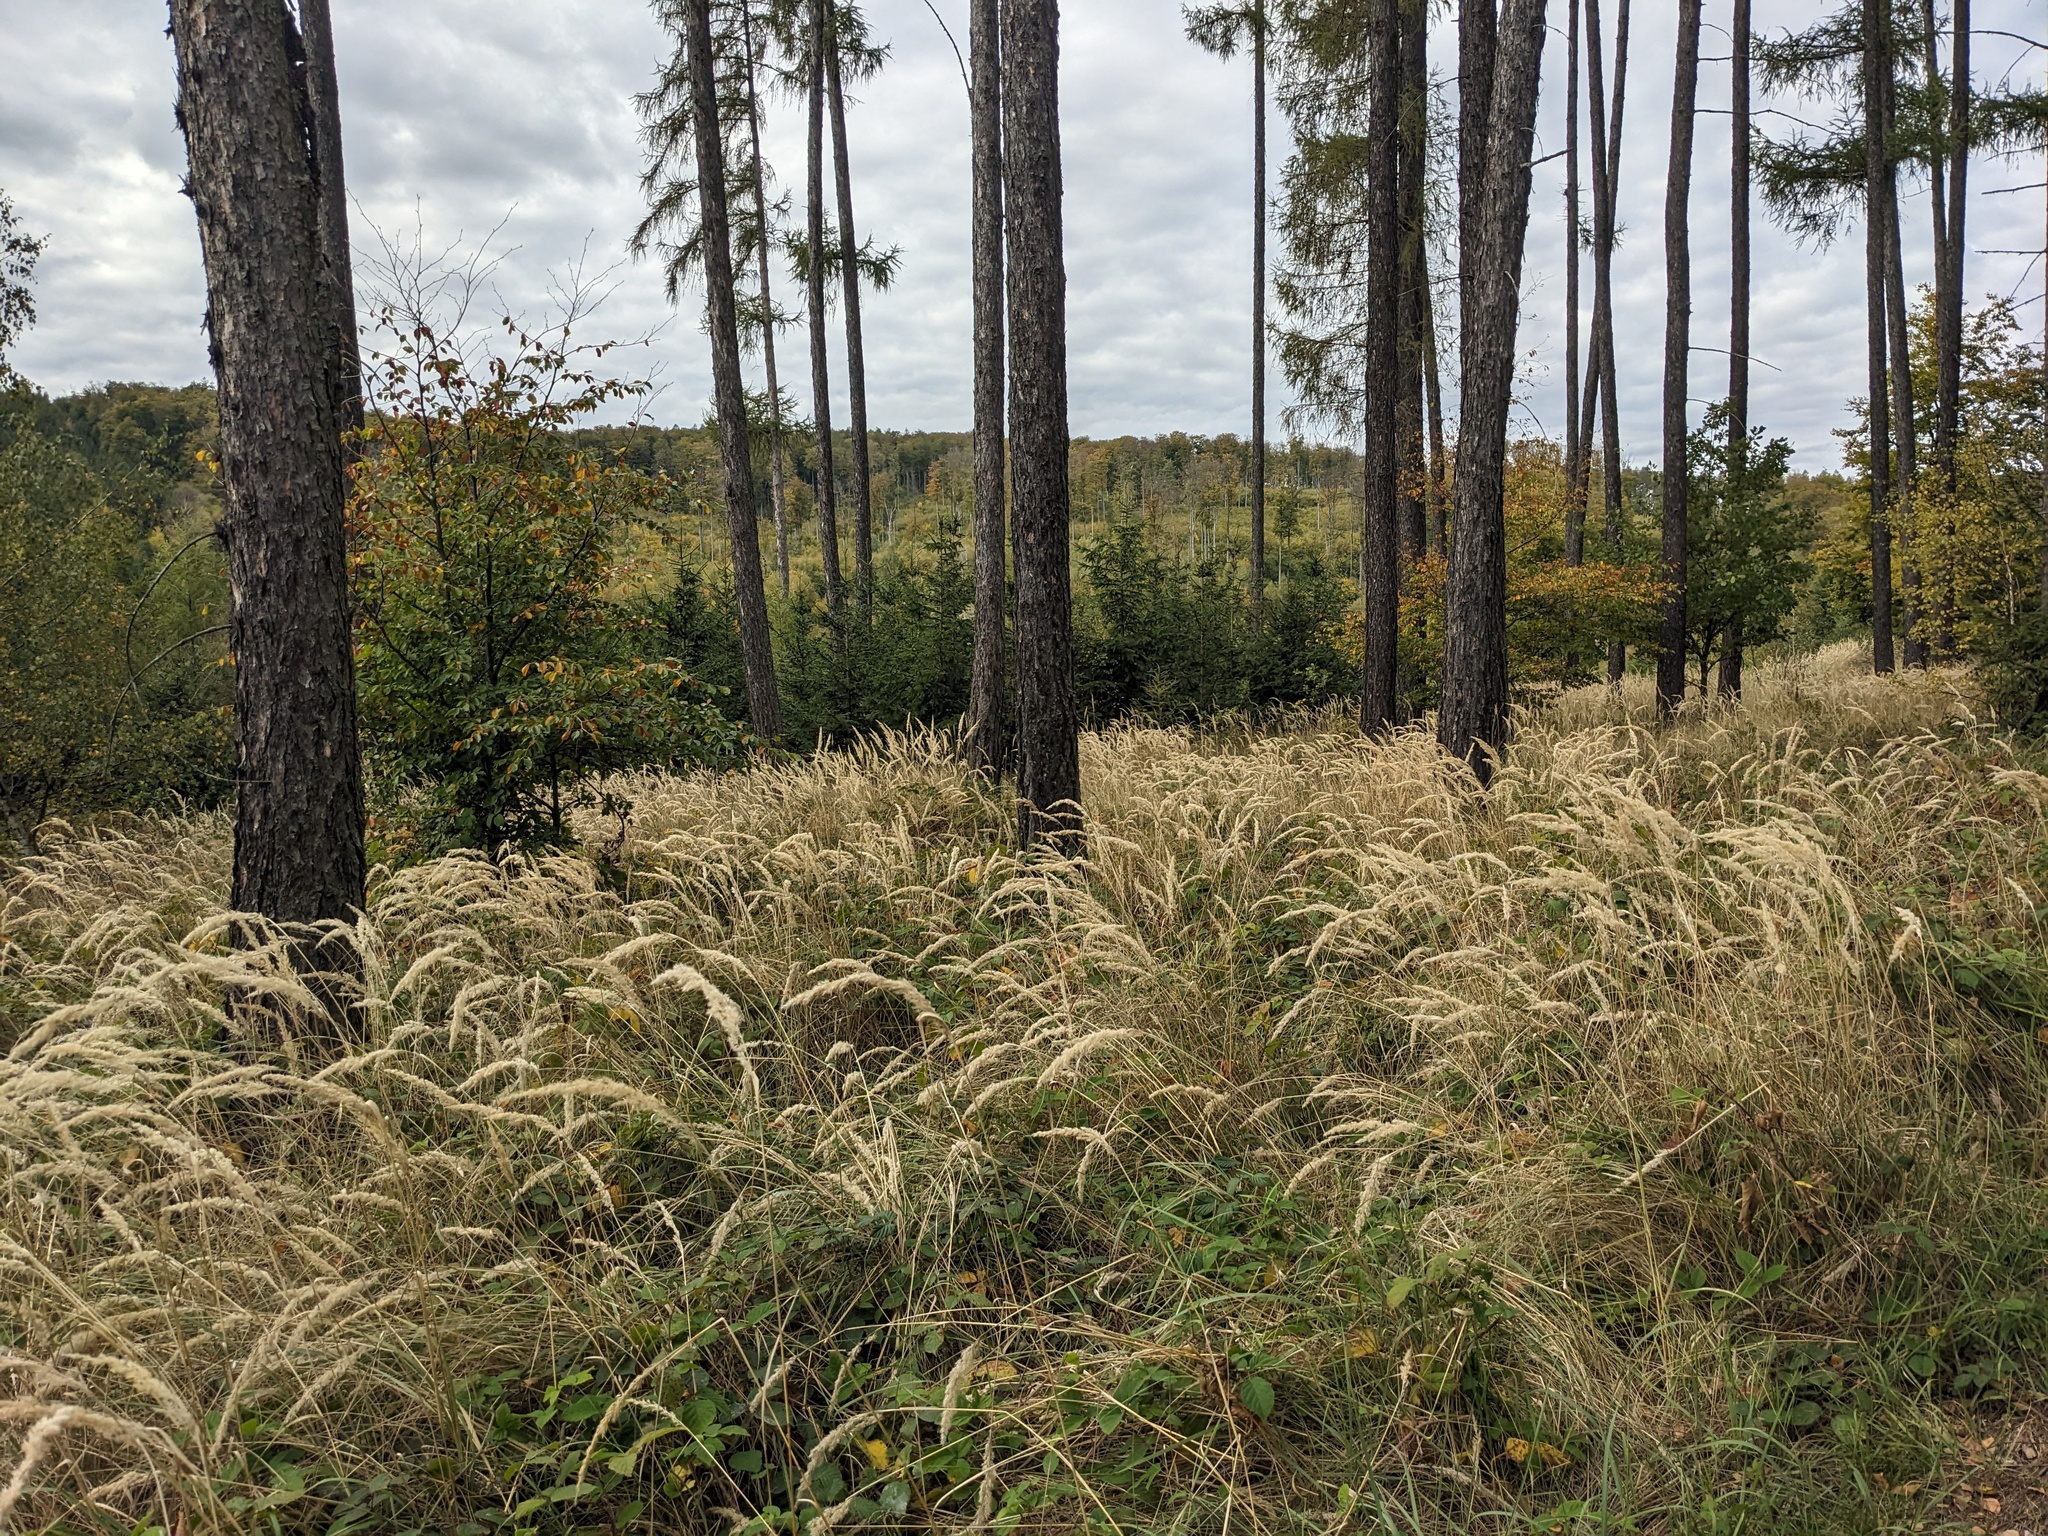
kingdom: Plantae
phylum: Tracheophyta
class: Liliopsida
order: Poales
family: Poaceae
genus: Calamagrostis
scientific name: Calamagrostis epigejos
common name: Wood small-reed
